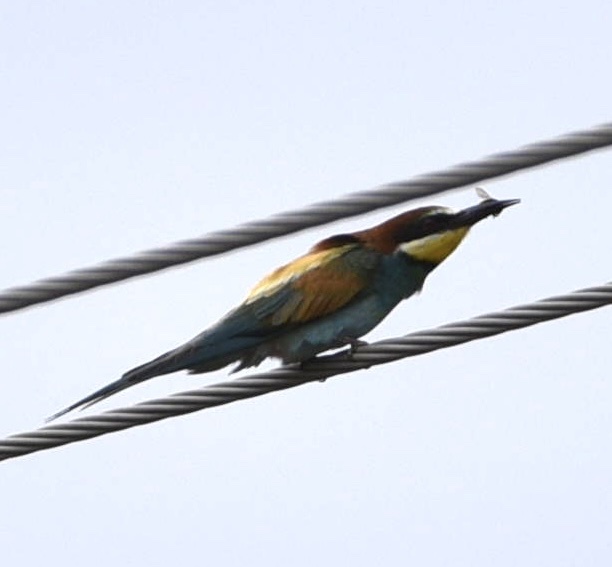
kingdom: Animalia
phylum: Chordata
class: Aves
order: Coraciiformes
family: Meropidae
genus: Merops
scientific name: Merops apiaster
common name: European bee-eater
